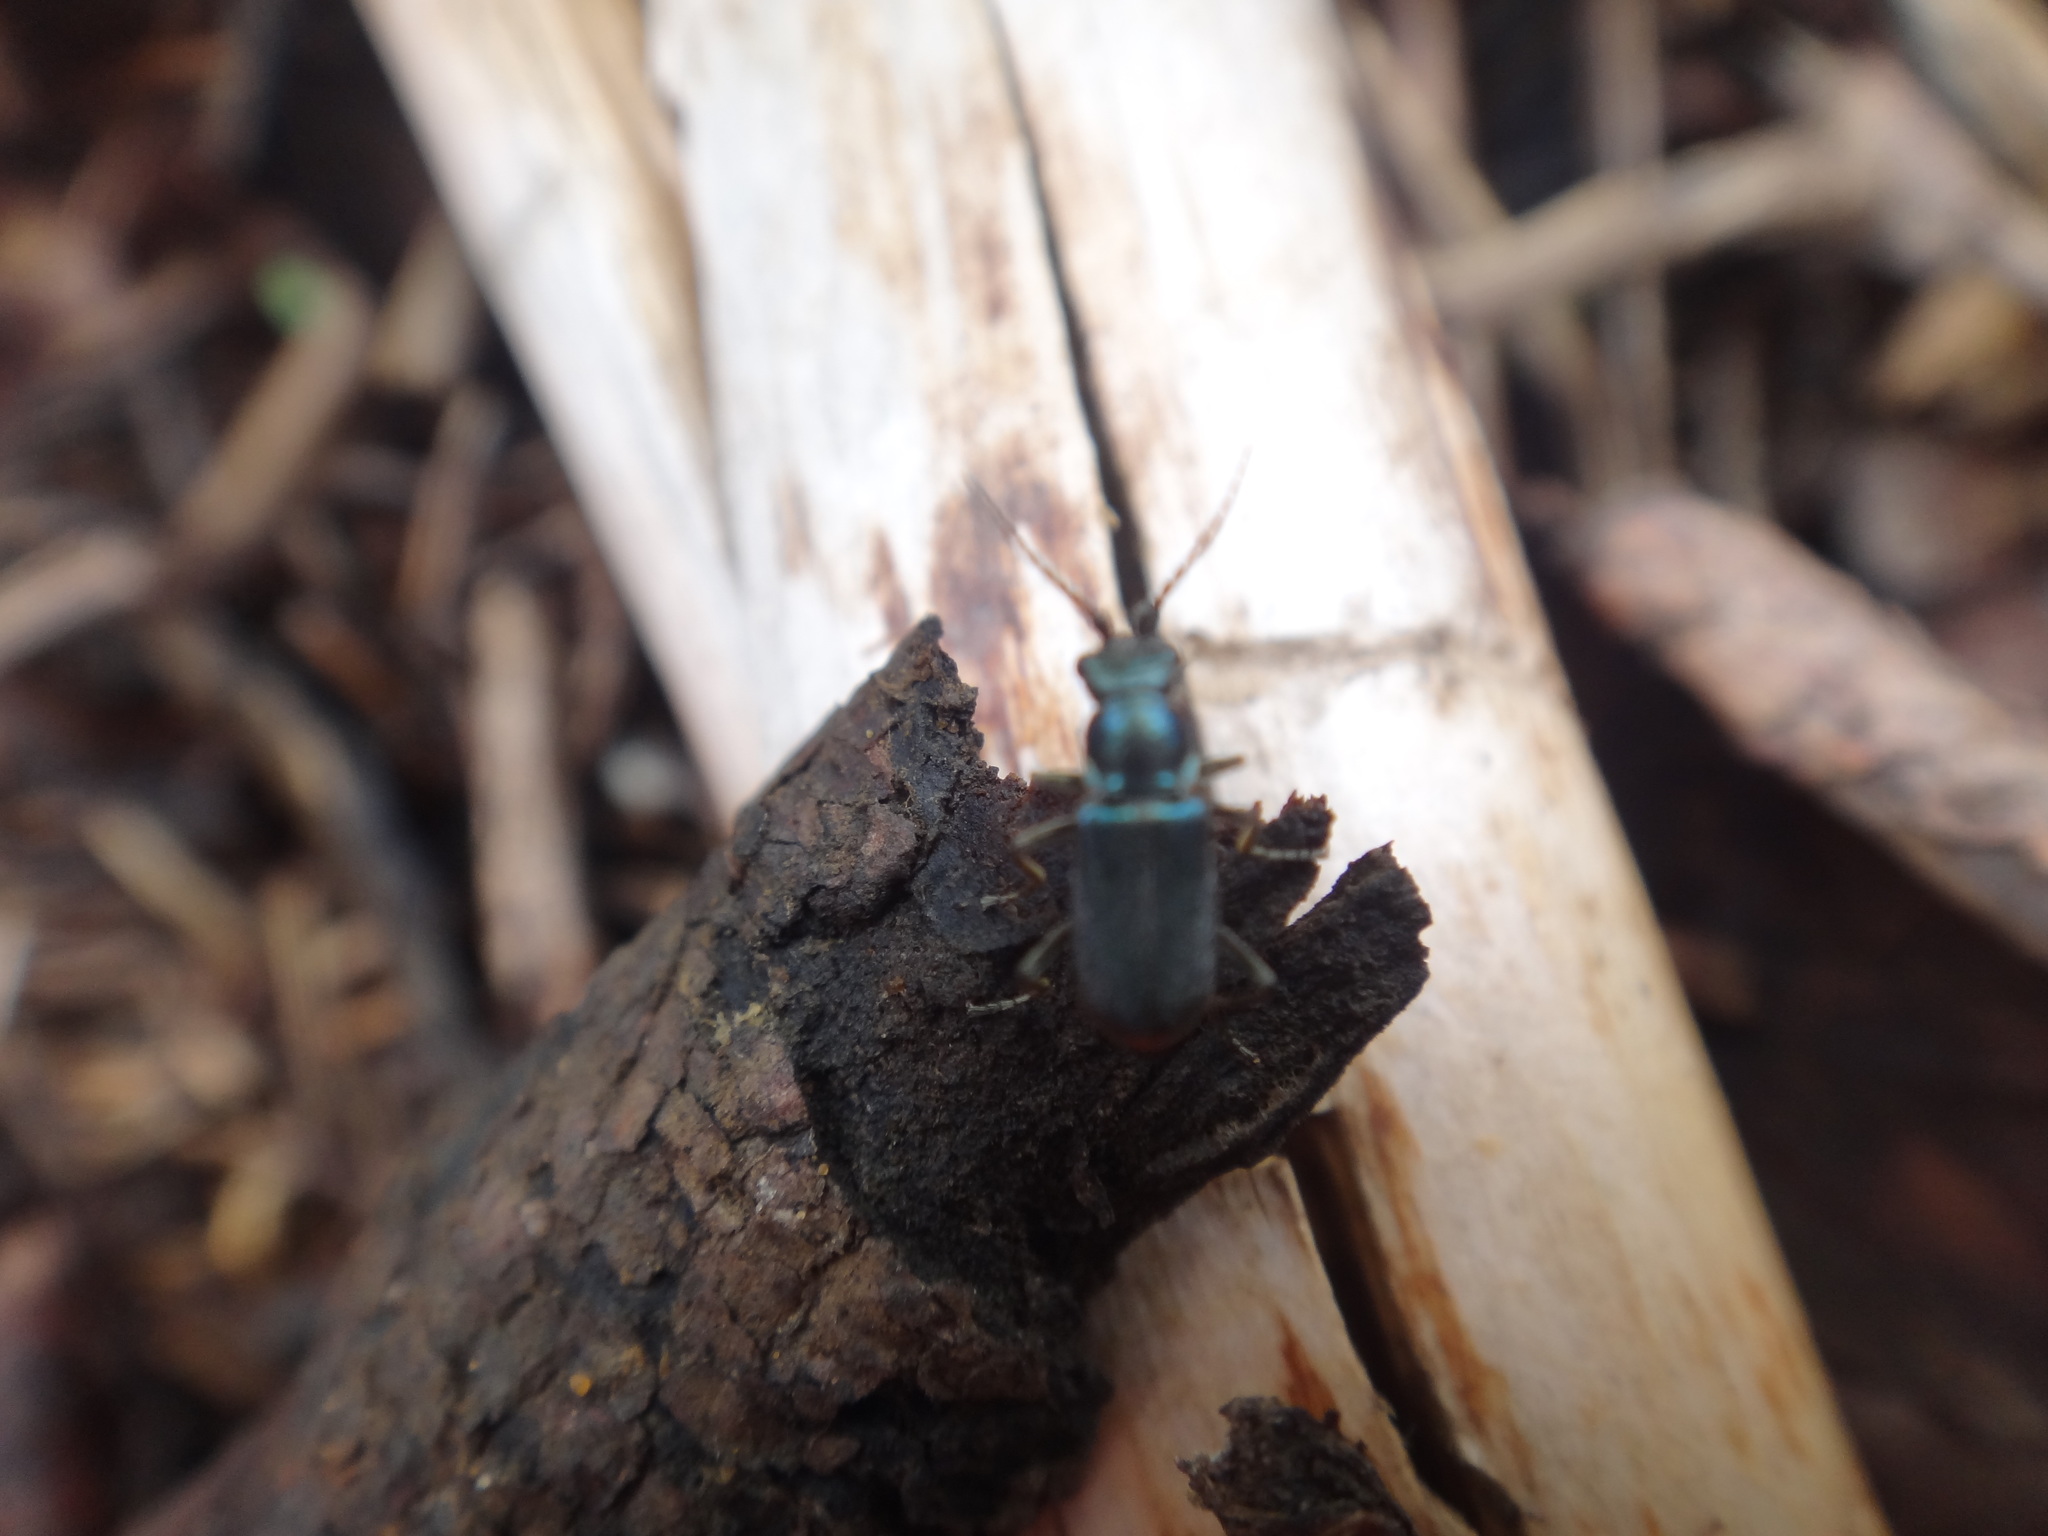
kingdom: Animalia
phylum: Arthropoda
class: Insecta
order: Coleoptera
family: Melyridae
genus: Malachius
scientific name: Malachius bipustulatus
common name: Malachite beetle
